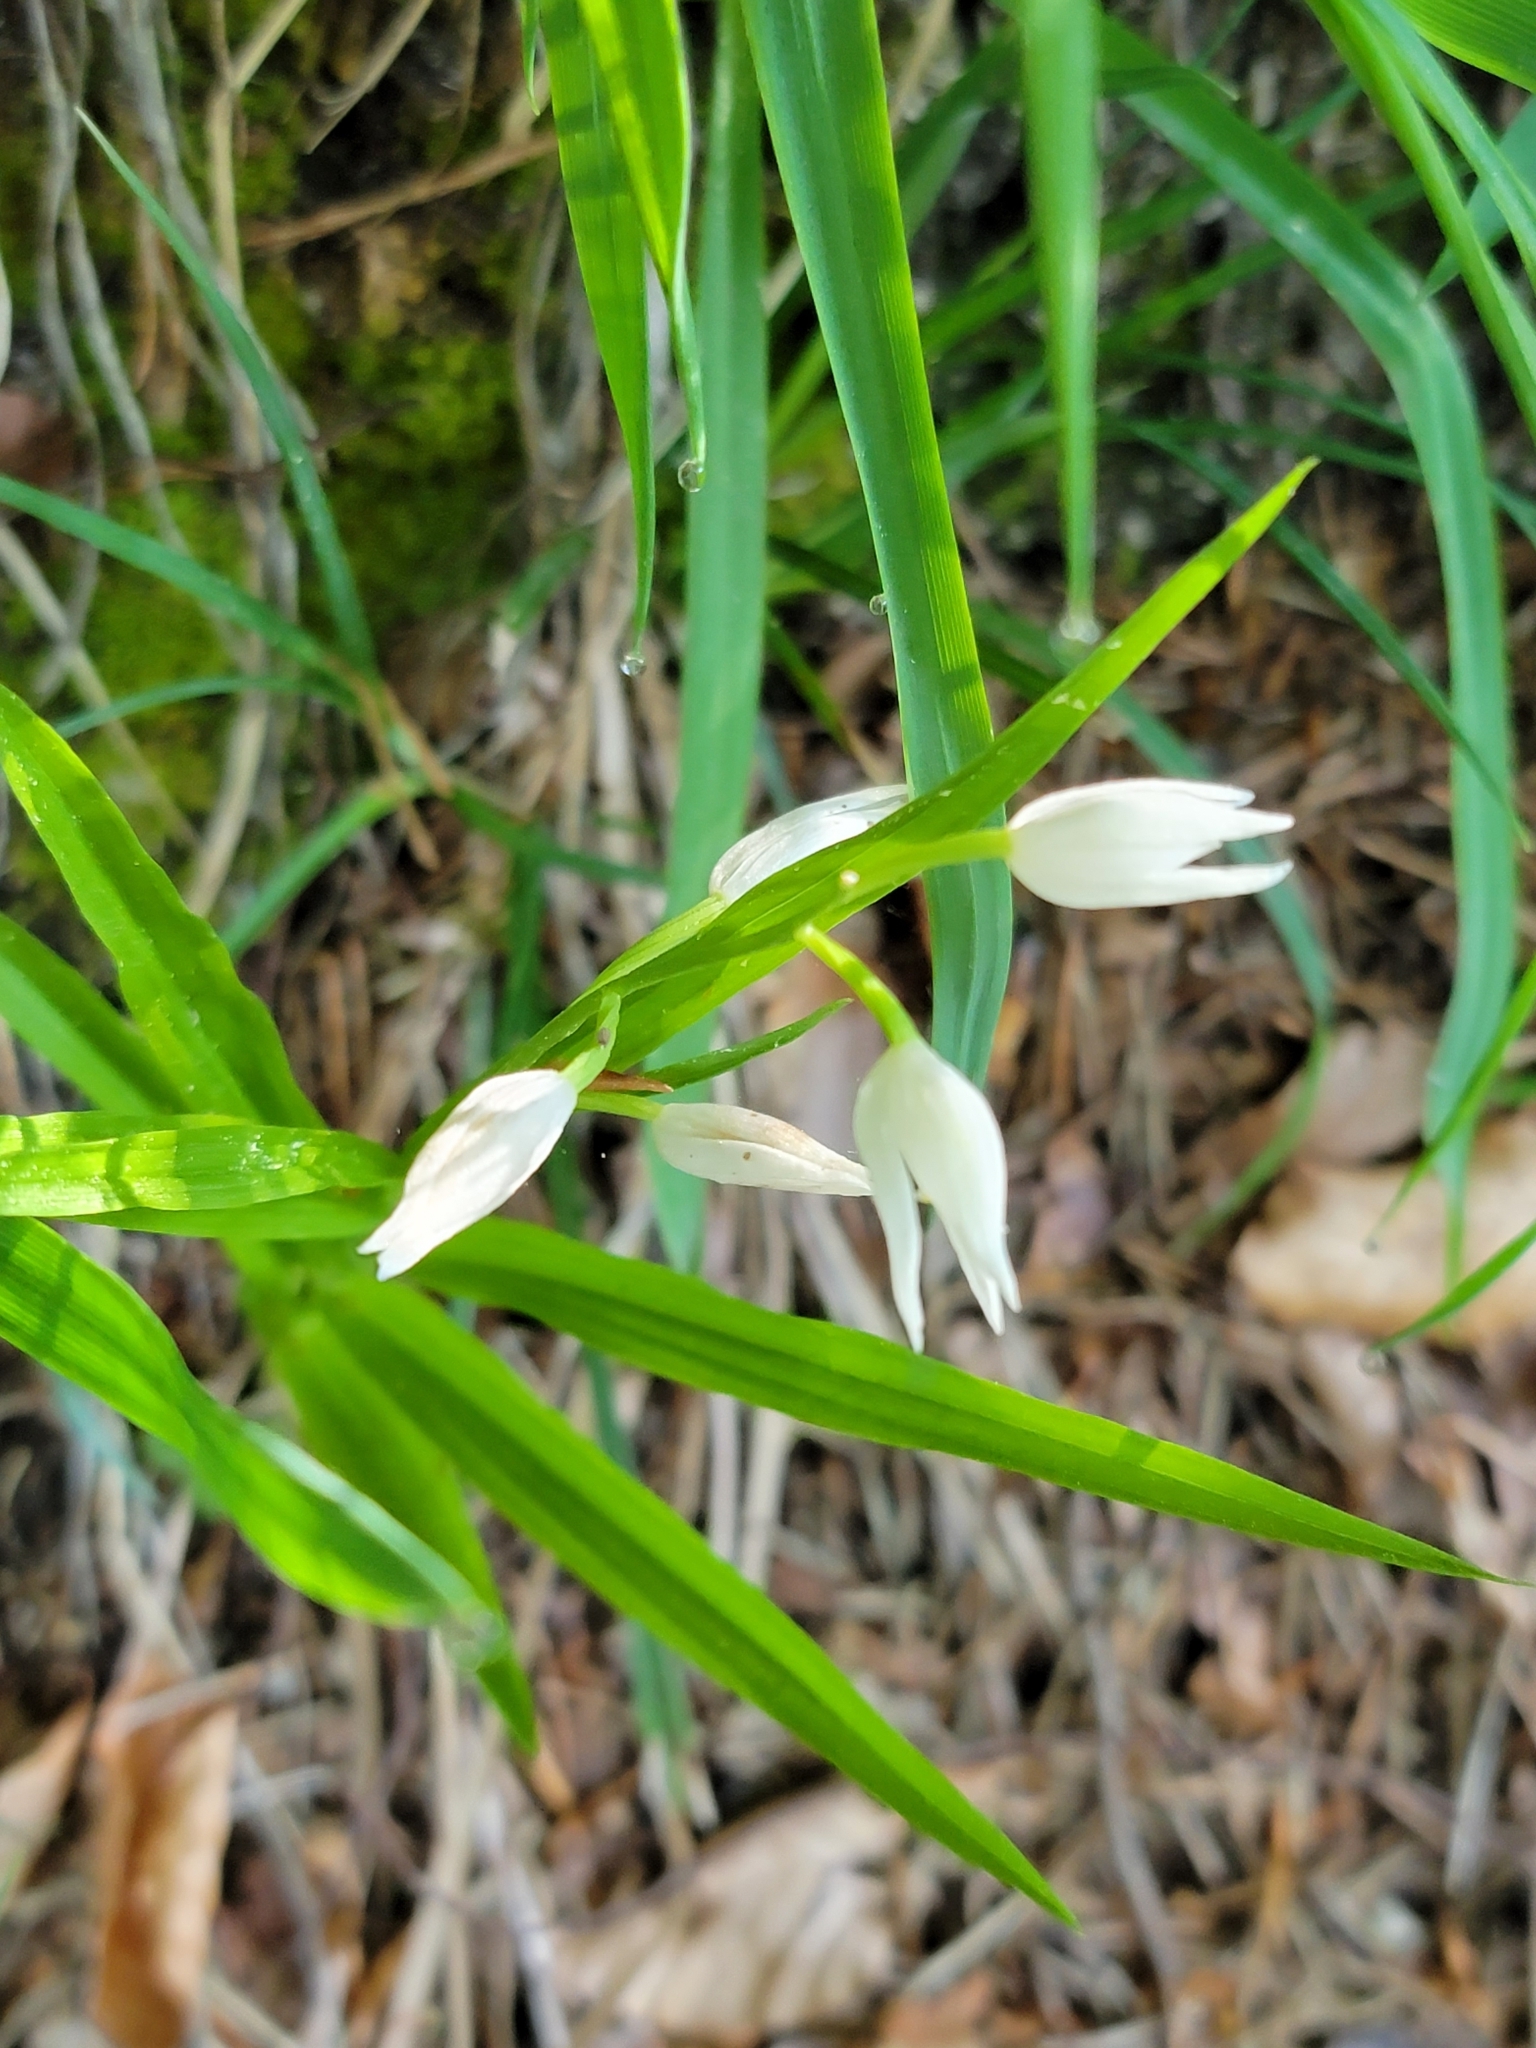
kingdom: Plantae
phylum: Tracheophyta
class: Liliopsida
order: Asparagales
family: Orchidaceae
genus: Cephalanthera
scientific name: Cephalanthera longifolia
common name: Narrow-leaved helleborine
